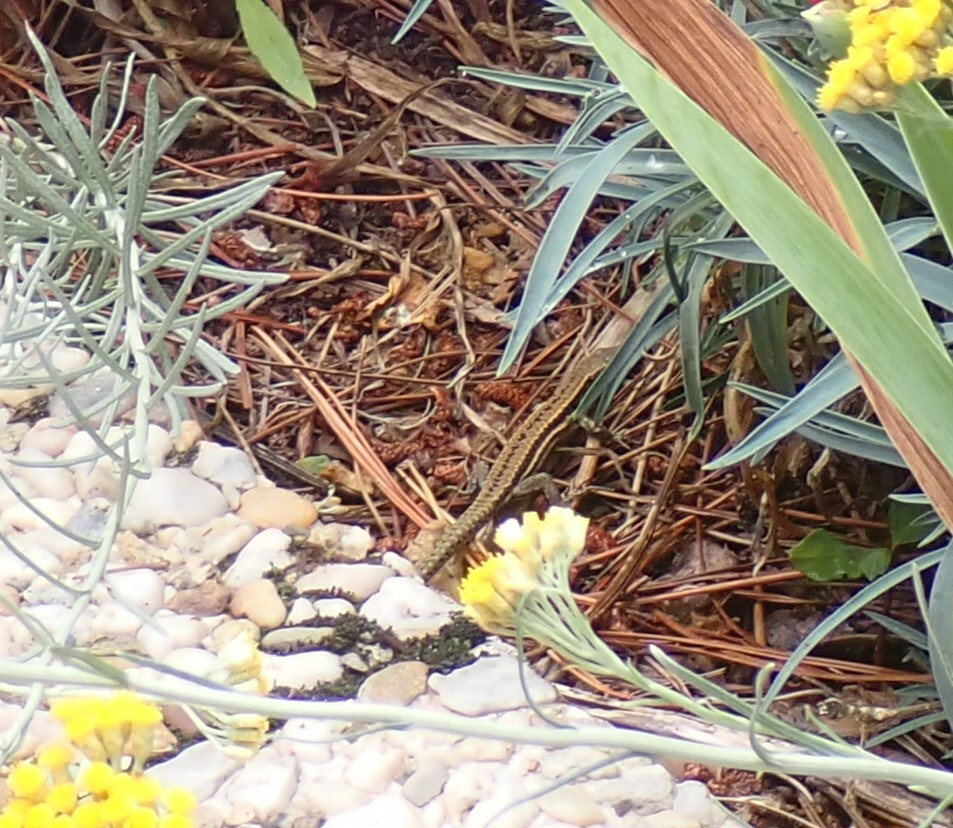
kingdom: Animalia
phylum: Chordata
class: Squamata
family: Lacertidae
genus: Podarcis
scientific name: Podarcis muralis
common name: Common wall lizard
